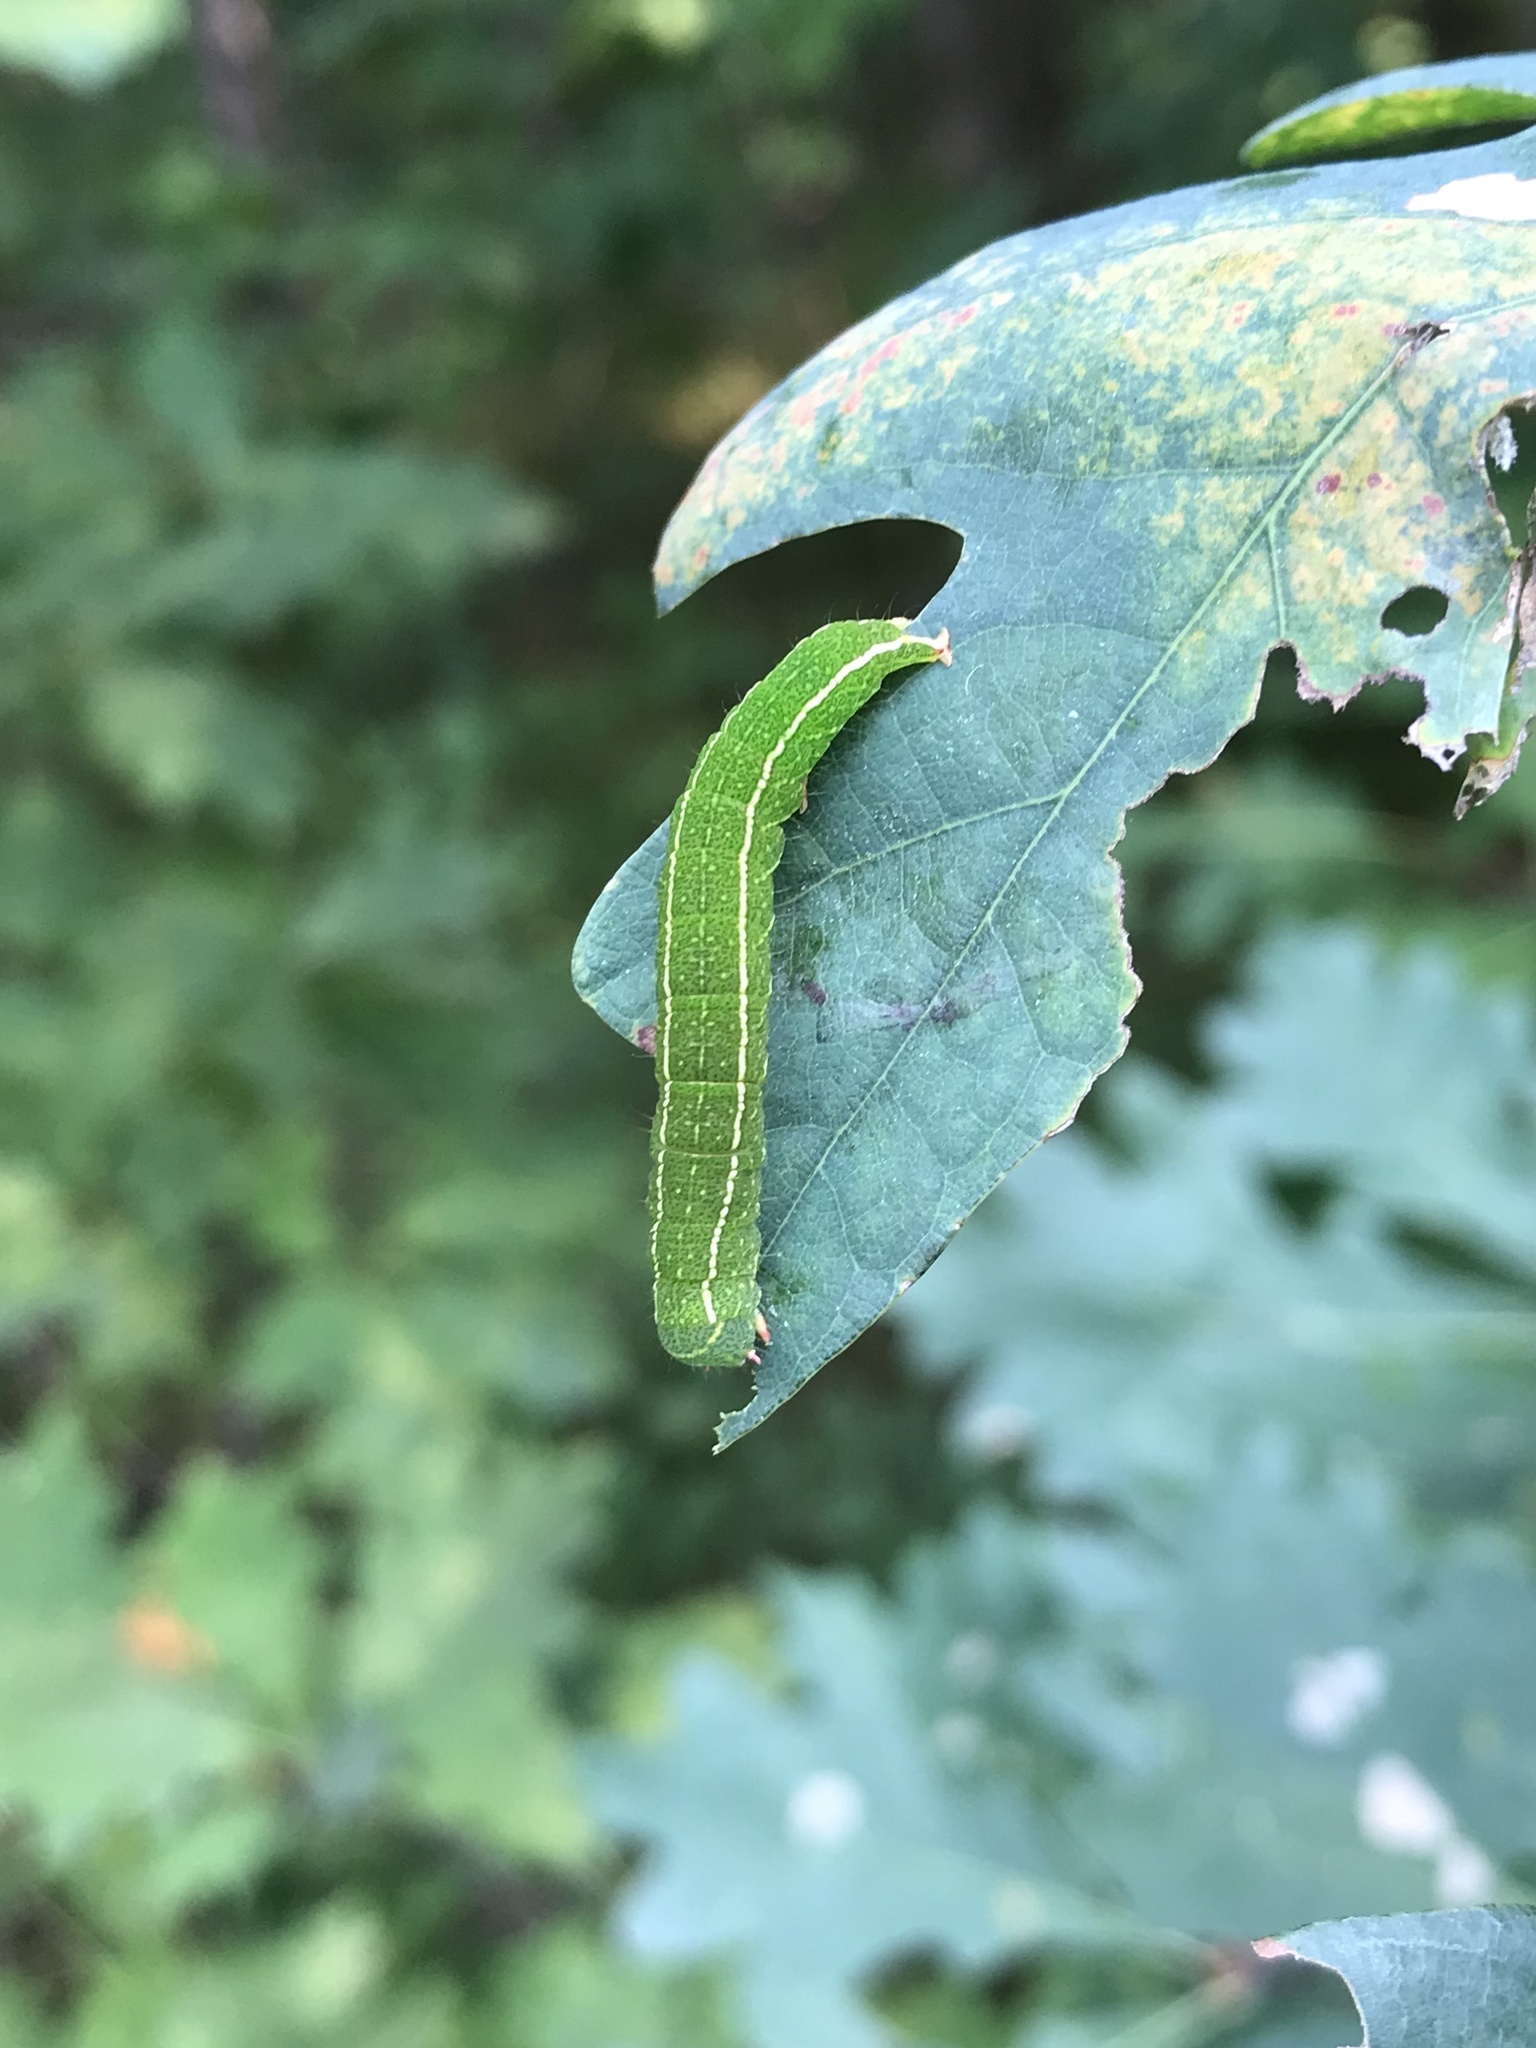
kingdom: Animalia
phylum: Arthropoda
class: Insecta
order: Lepidoptera
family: Erebidae
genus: Panopoda
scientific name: Panopoda rufimargo
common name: Red-lined panopoda moth
